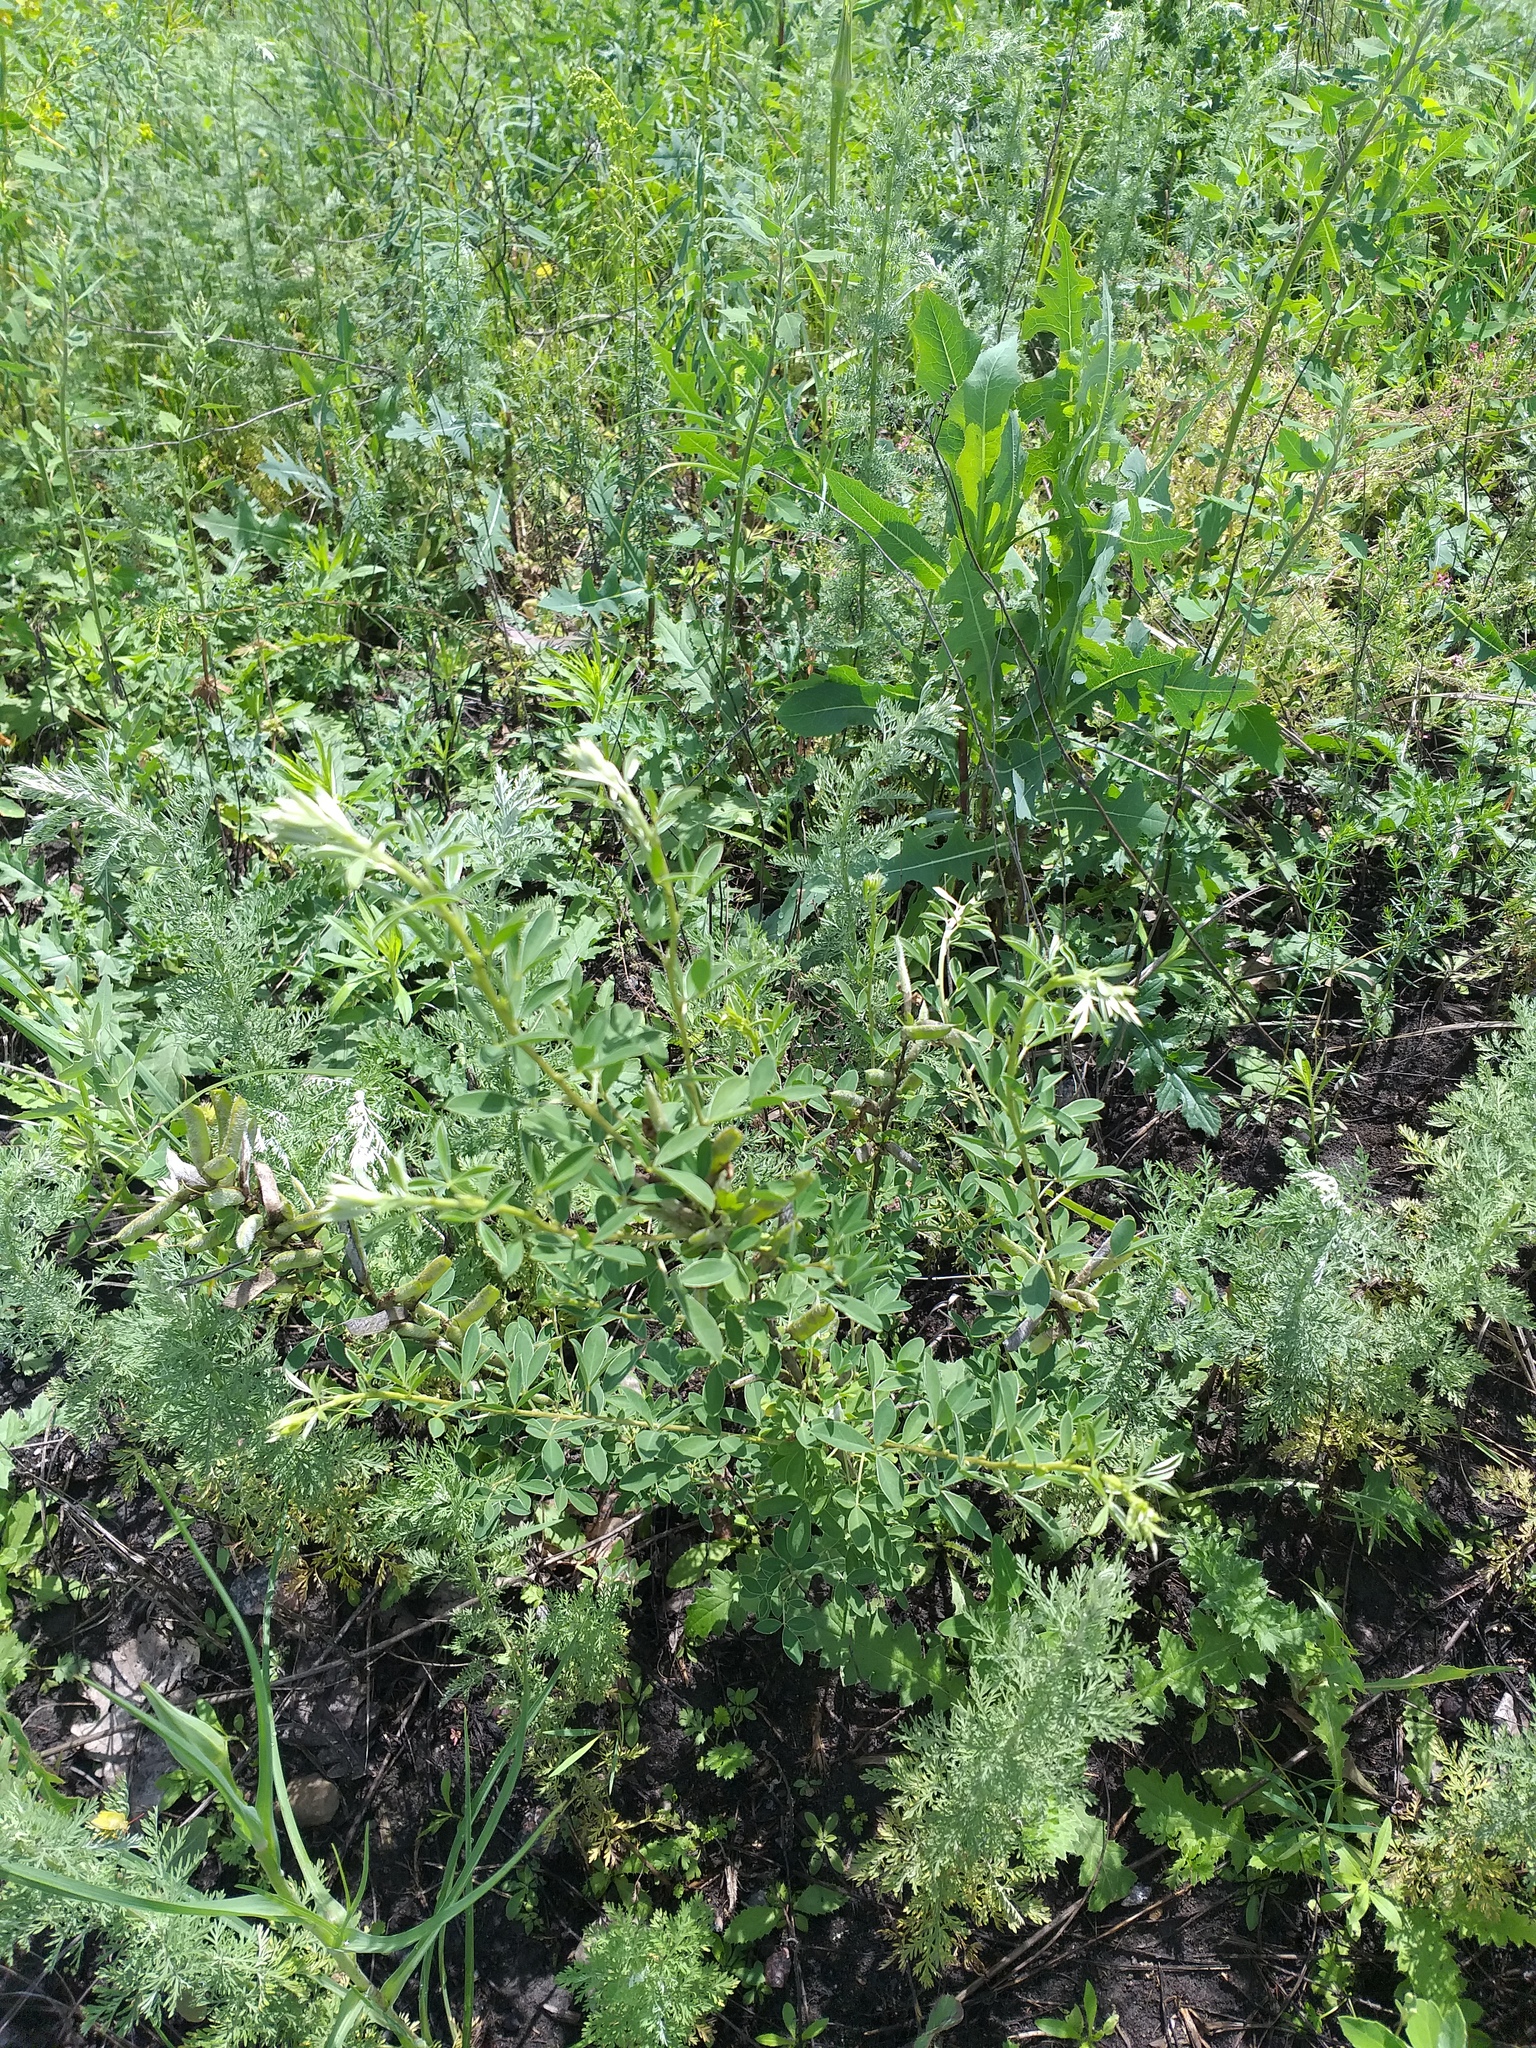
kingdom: Plantae
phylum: Tracheophyta
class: Magnoliopsida
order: Fabales
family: Fabaceae
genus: Chamaecytisus
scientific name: Chamaecytisus ruthenicus
